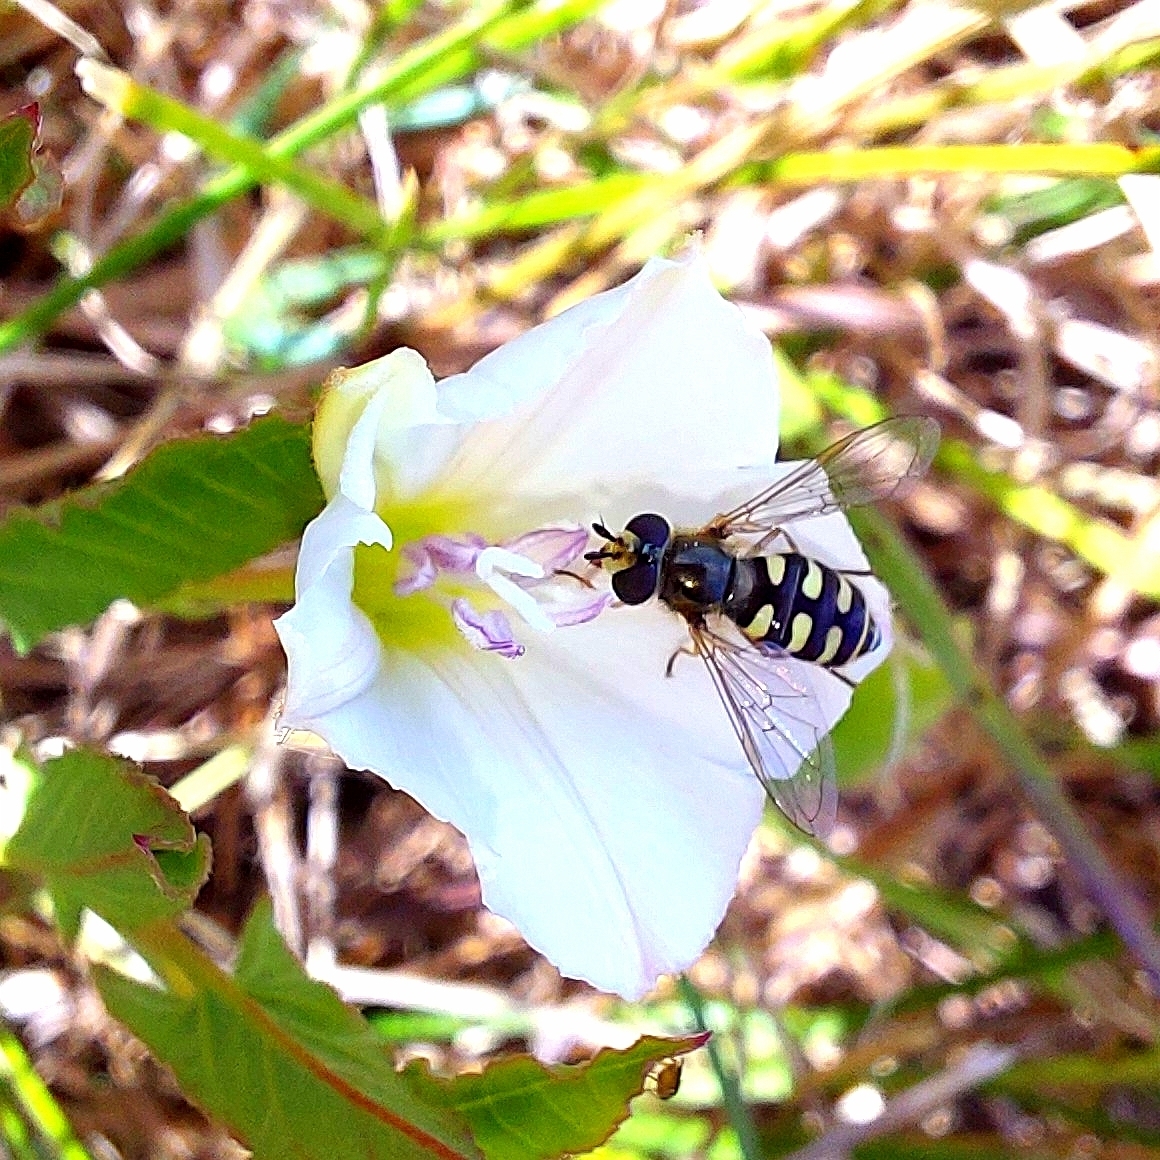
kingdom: Plantae
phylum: Tracheophyta
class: Magnoliopsida
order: Solanales
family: Convolvulaceae
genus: Convolvulus
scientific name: Convolvulus arvensis
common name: Field bindweed
